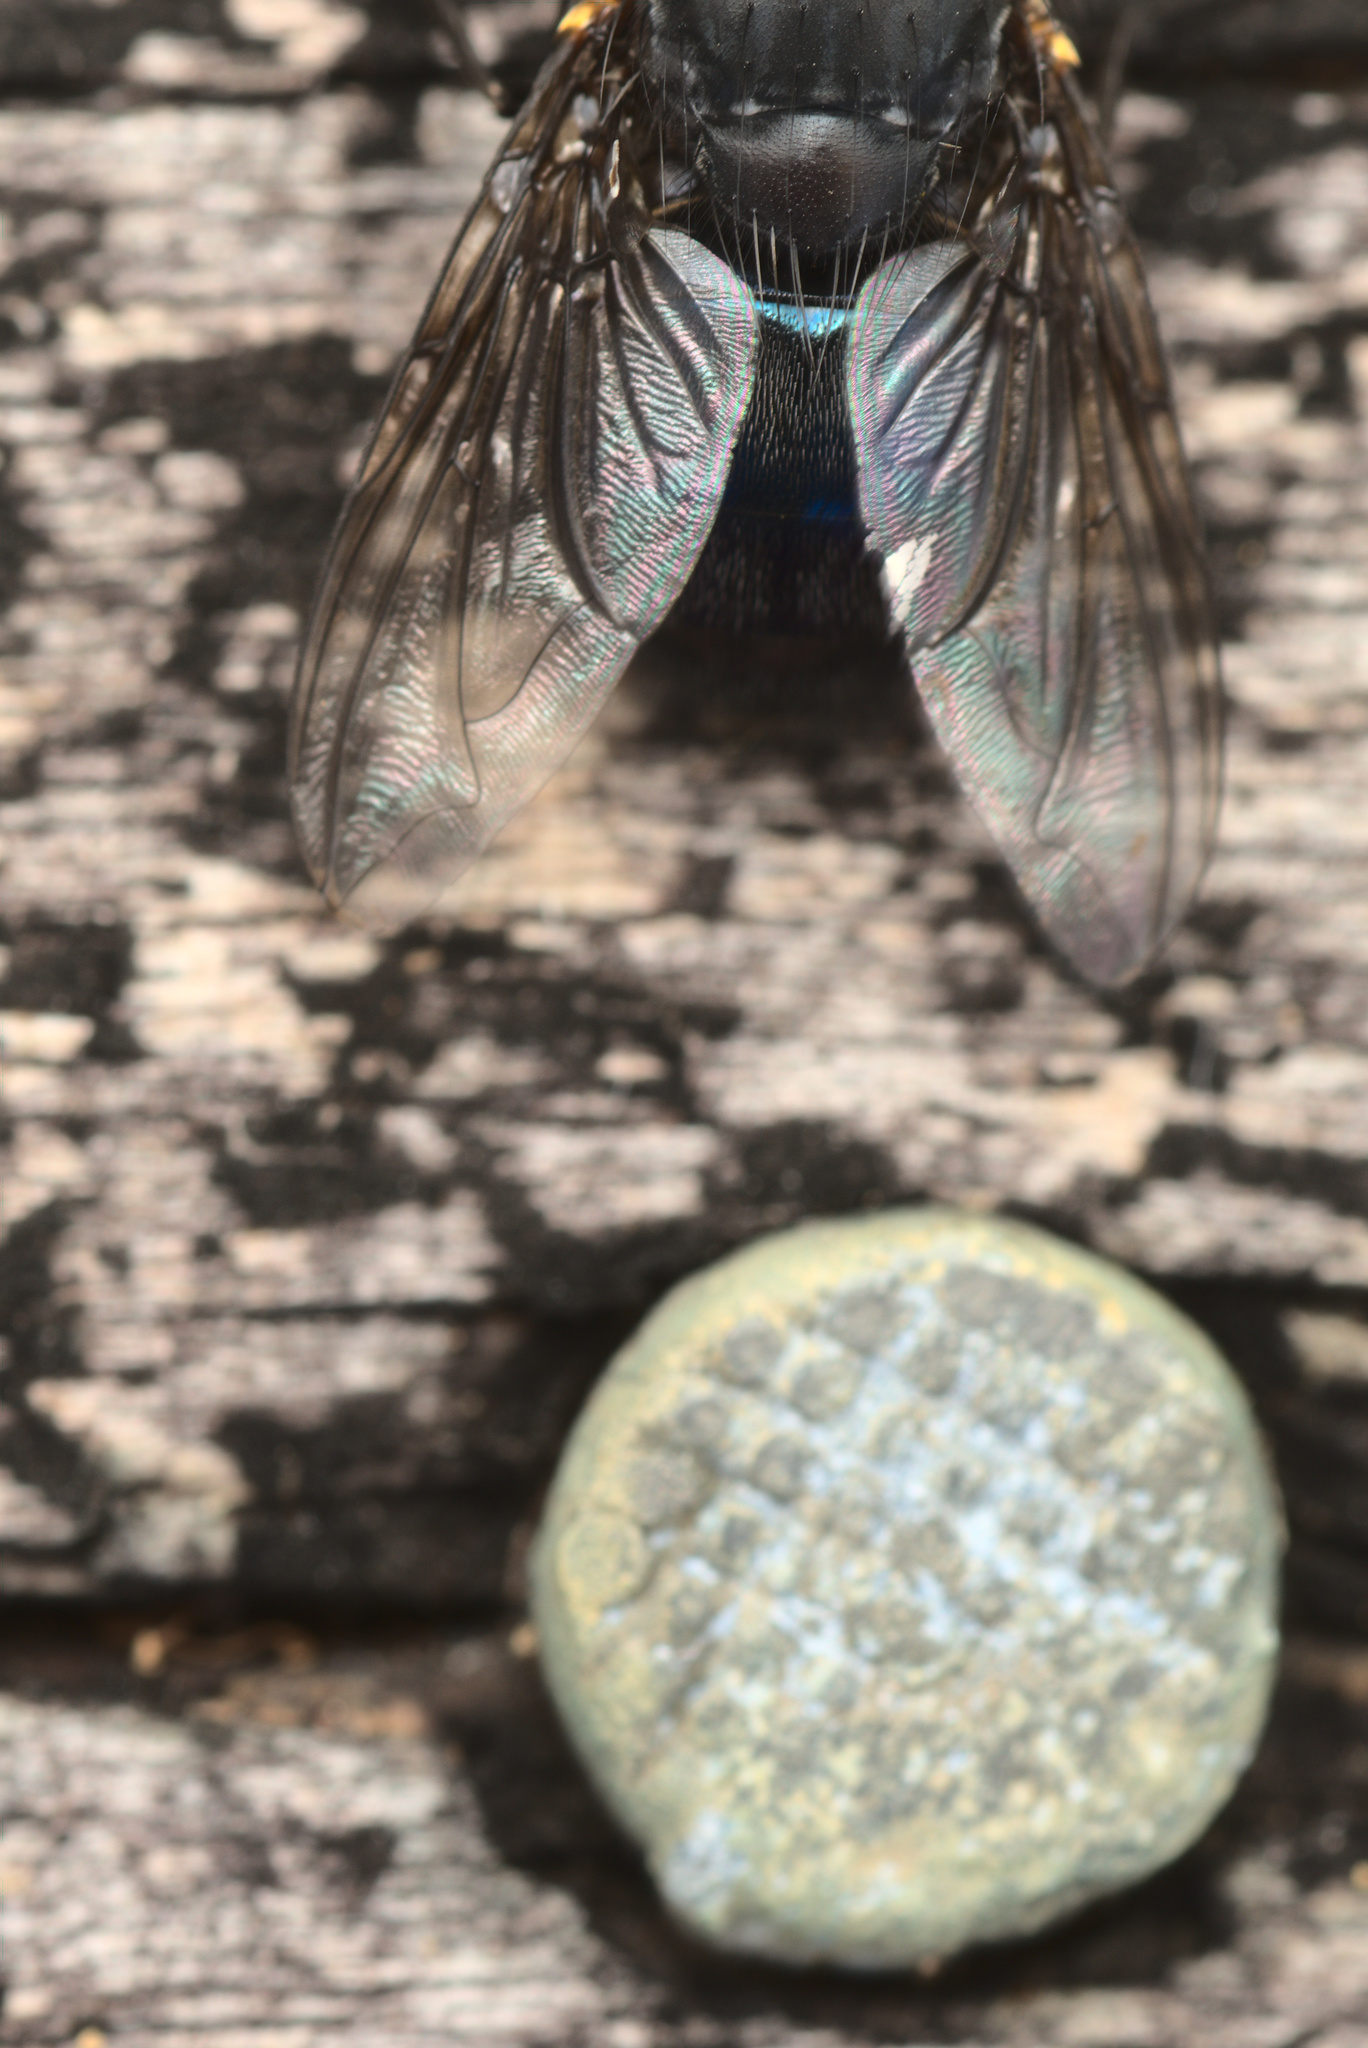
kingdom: Animalia
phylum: Arthropoda
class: Insecta
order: Diptera
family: Calliphoridae
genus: Calliphora
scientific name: Calliphora quadrimaculata
